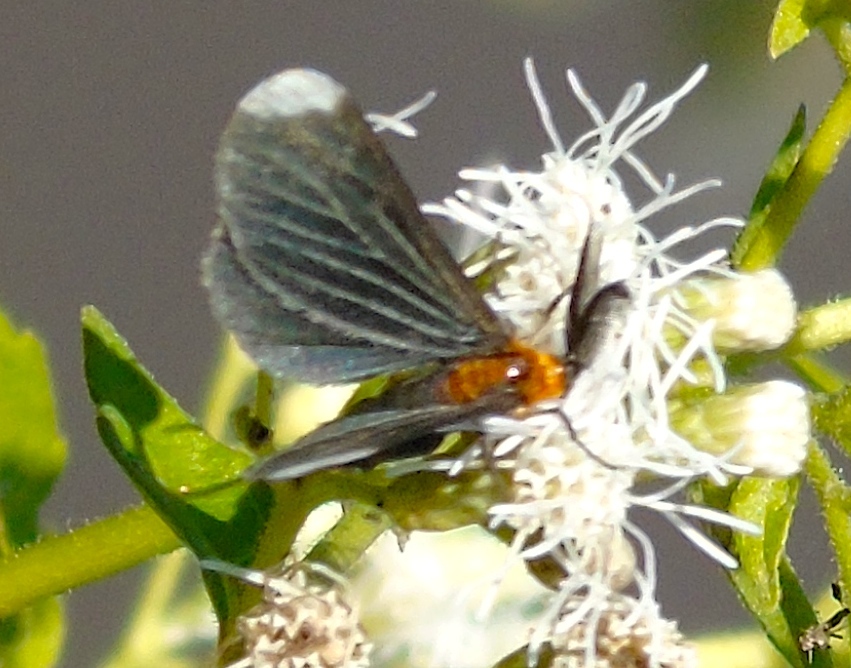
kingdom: Animalia
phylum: Arthropoda
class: Insecta
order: Lepidoptera
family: Geometridae
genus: Melanchroia
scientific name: Melanchroia chephise
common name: White-tipped black
